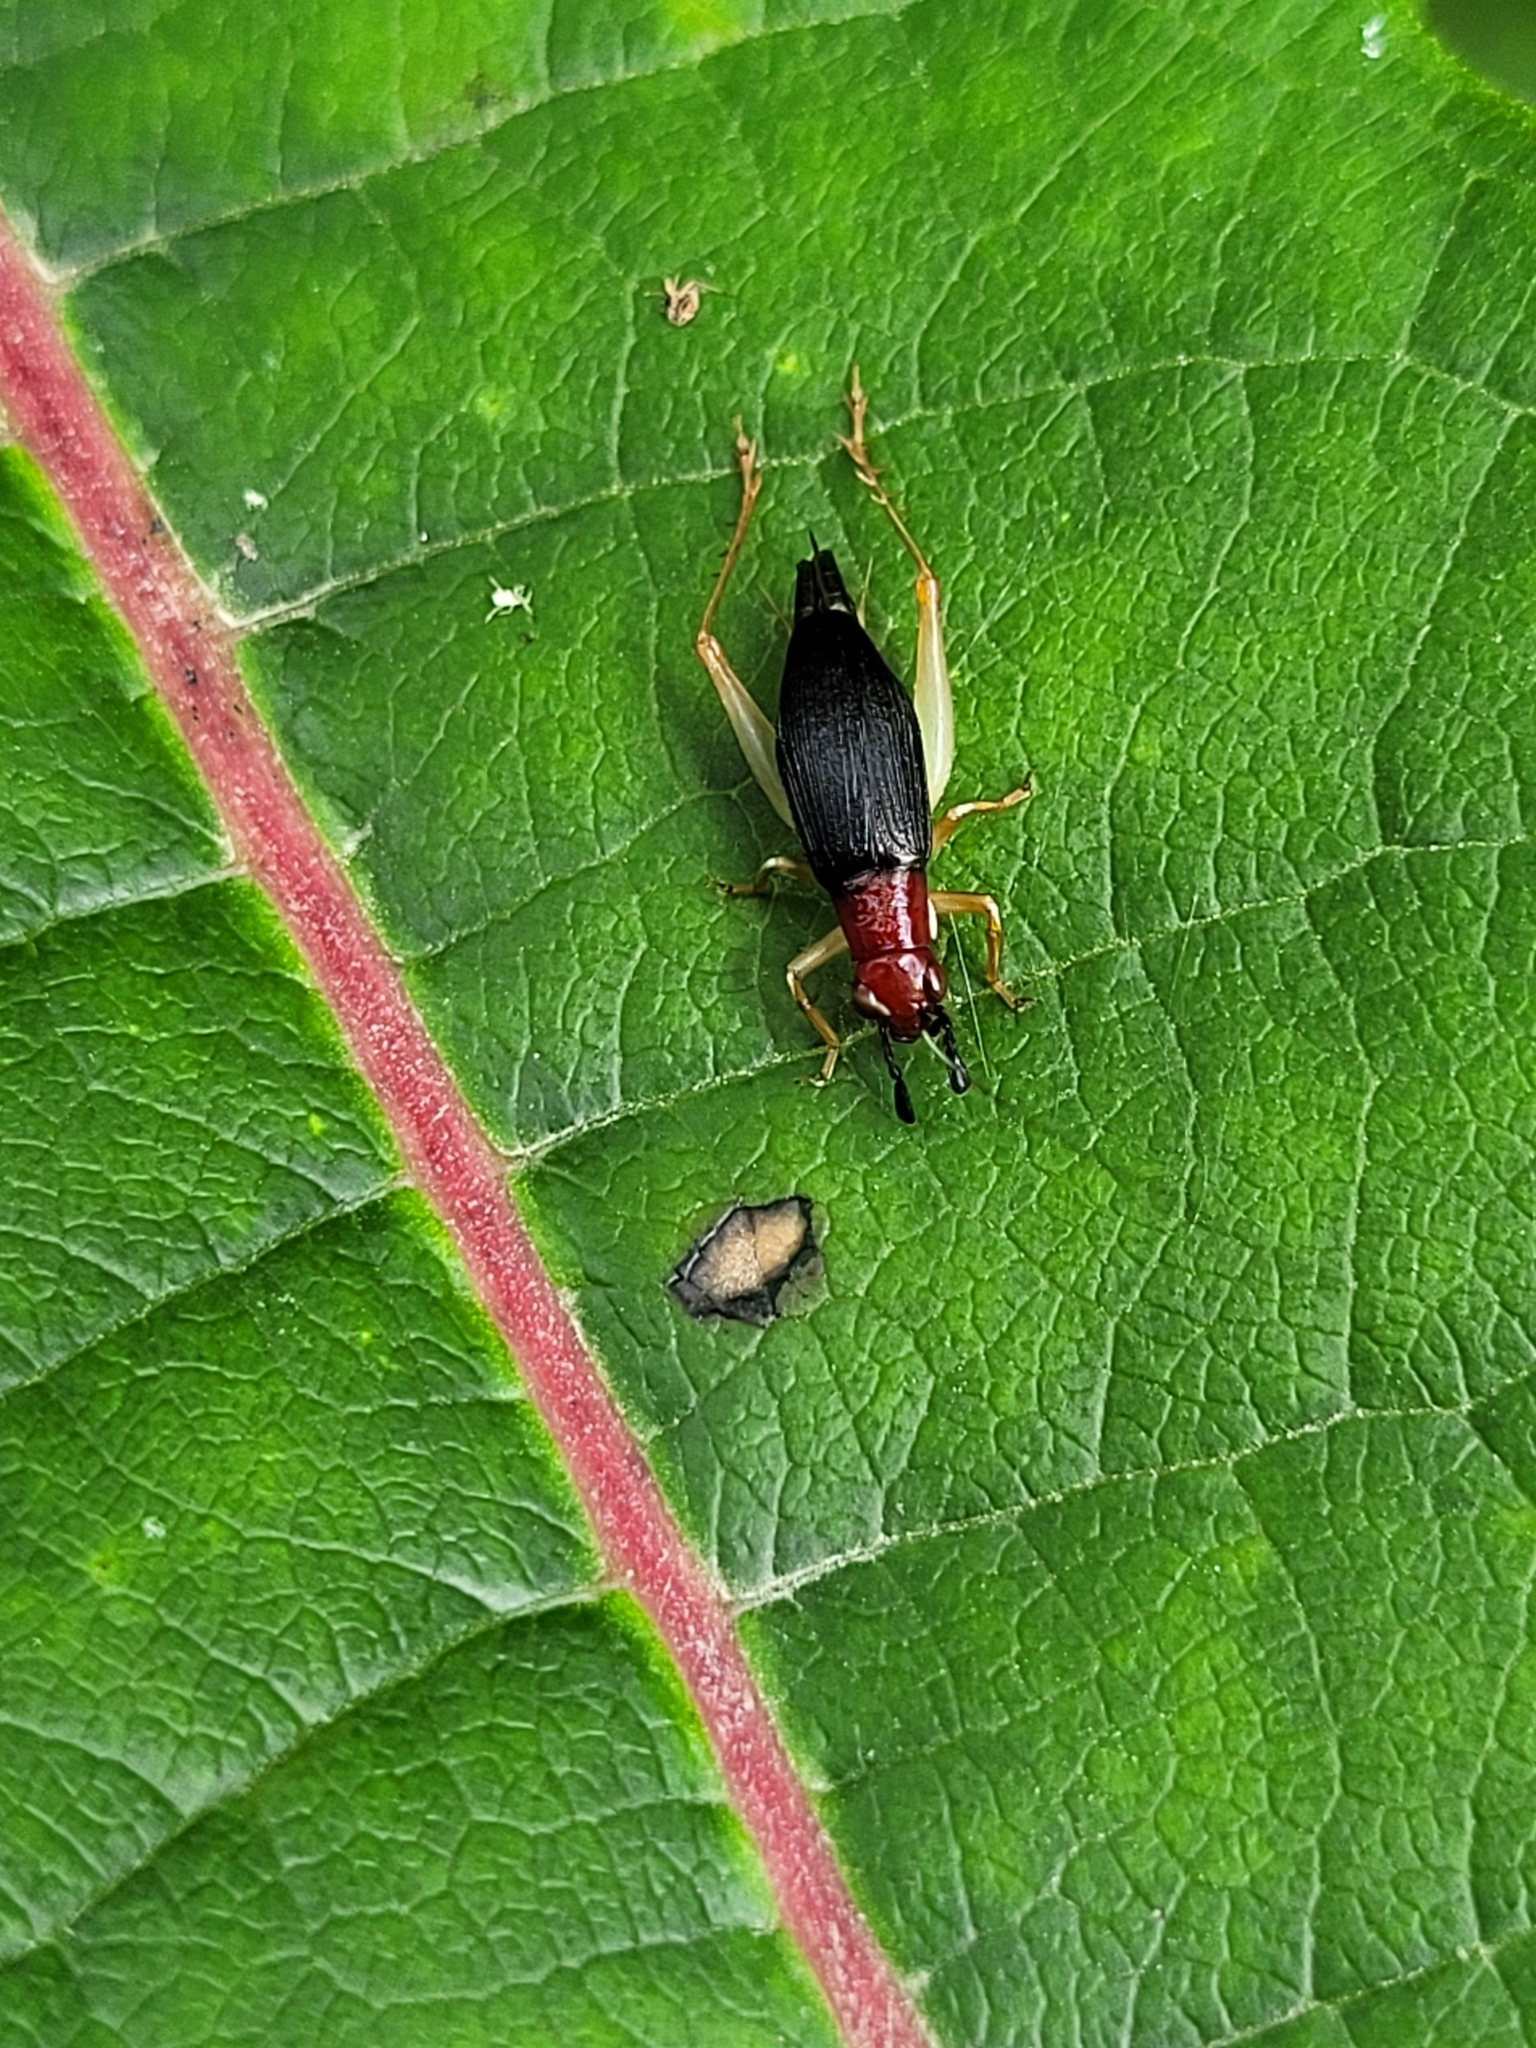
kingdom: Animalia
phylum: Arthropoda
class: Insecta
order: Orthoptera
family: Trigonidiidae
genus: Phyllopalpus
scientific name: Phyllopalpus pulchellus
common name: Handsome trig
